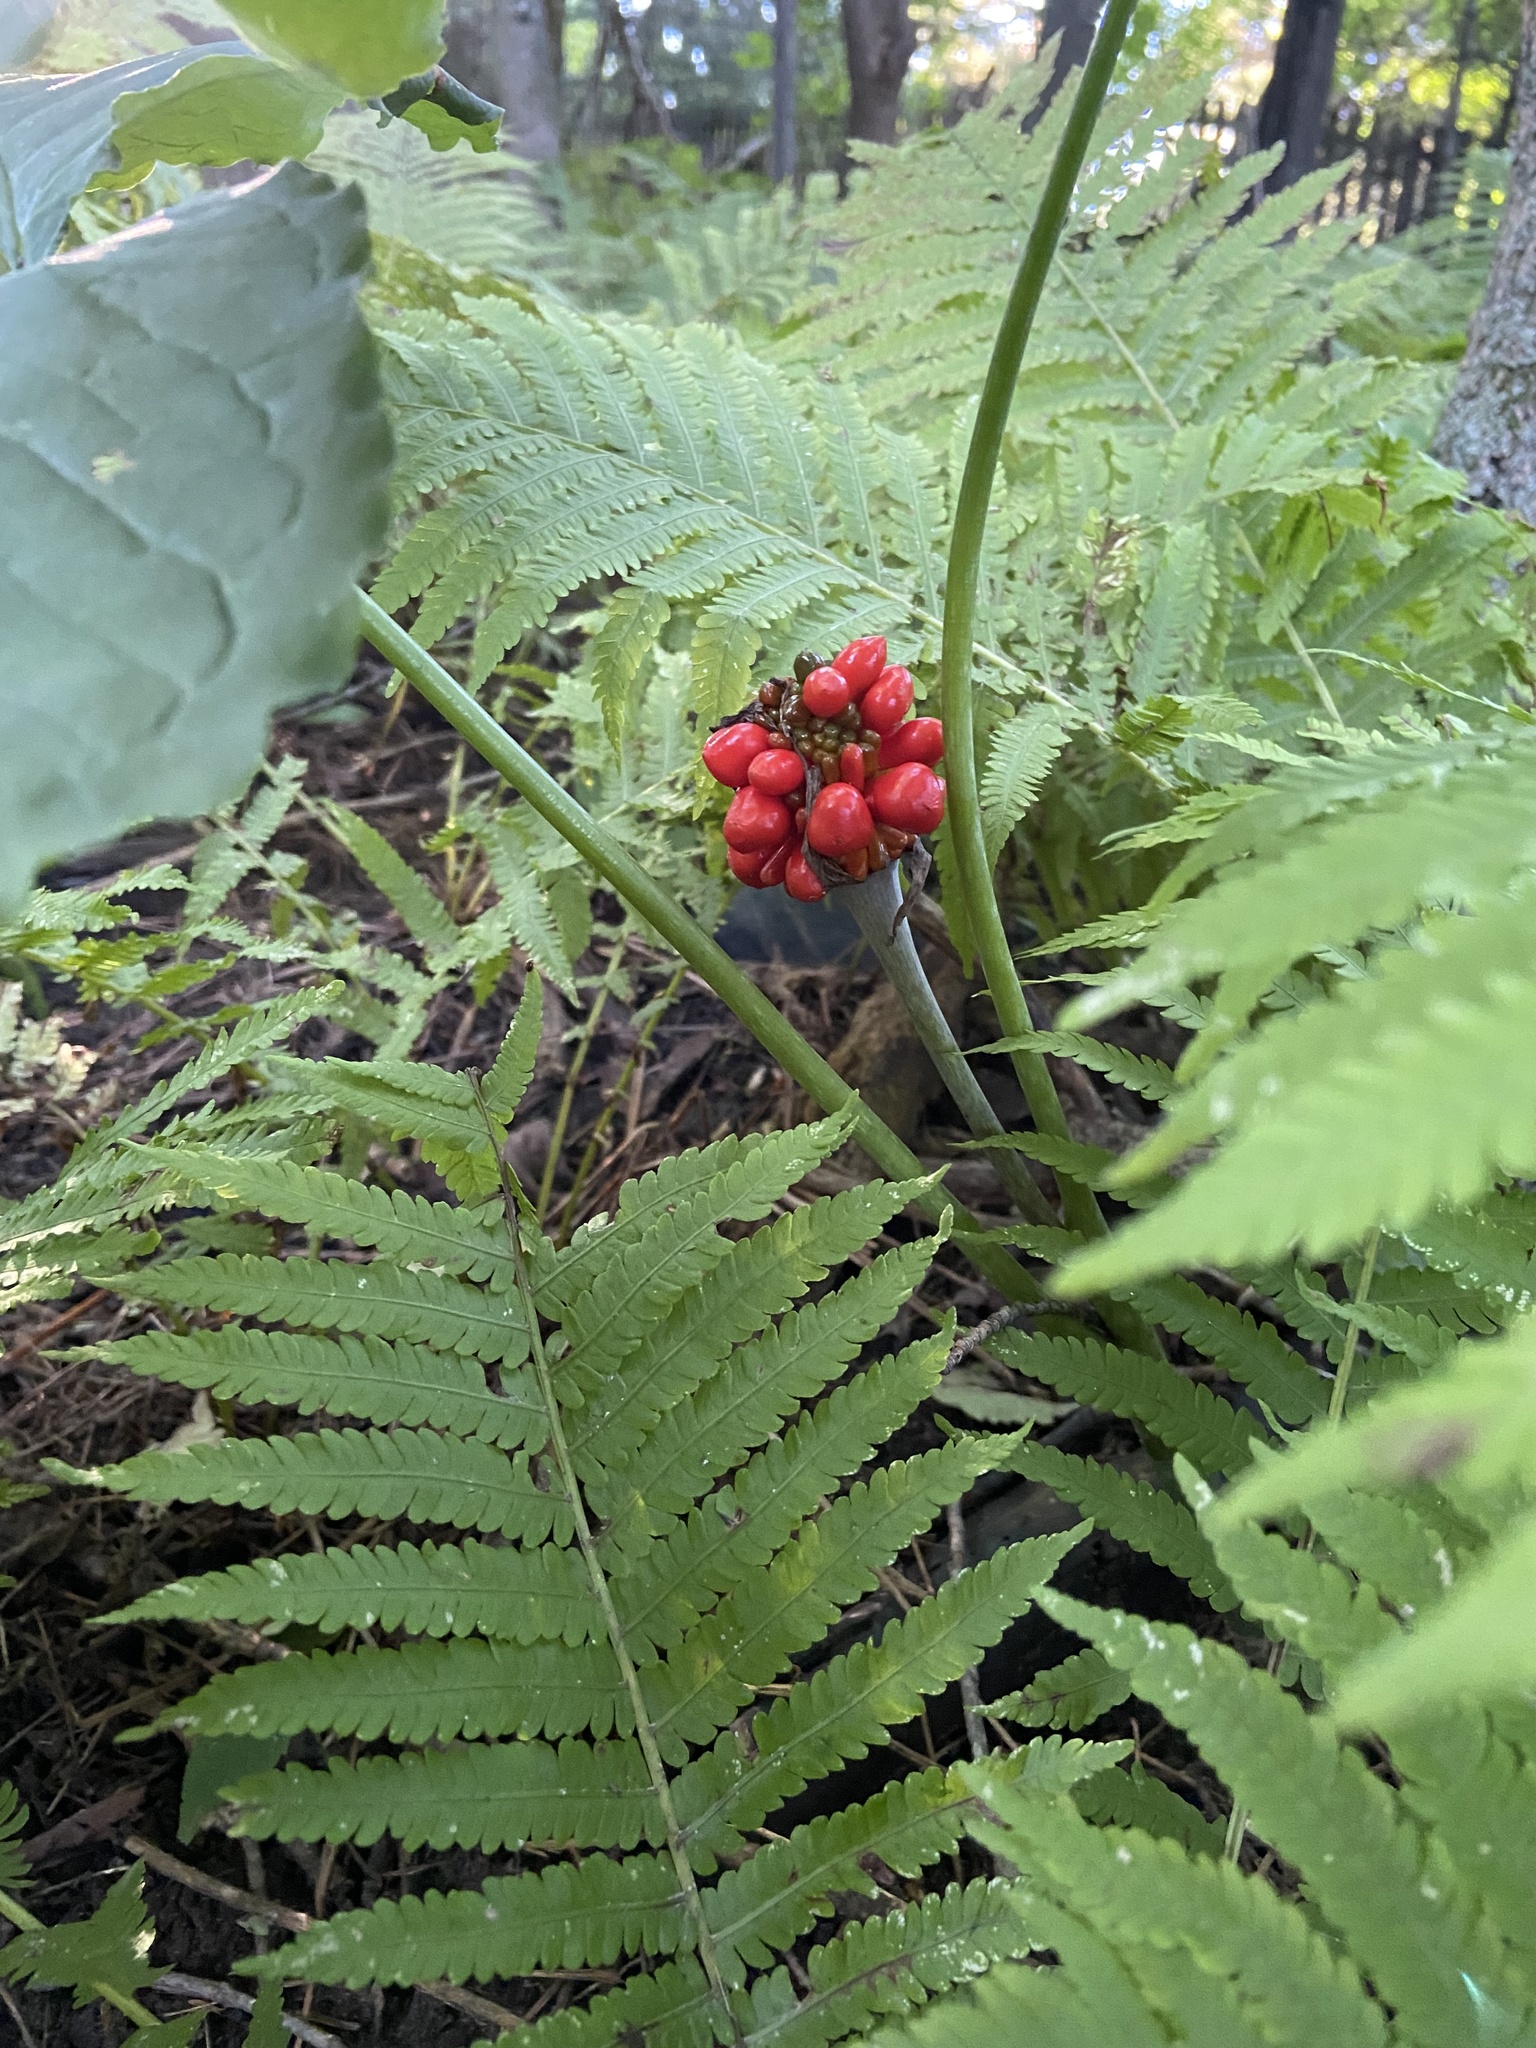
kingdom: Plantae
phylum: Tracheophyta
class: Liliopsida
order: Alismatales
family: Araceae
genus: Arisaema
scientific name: Arisaema triphyllum
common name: Jack-in-the-pulpit
